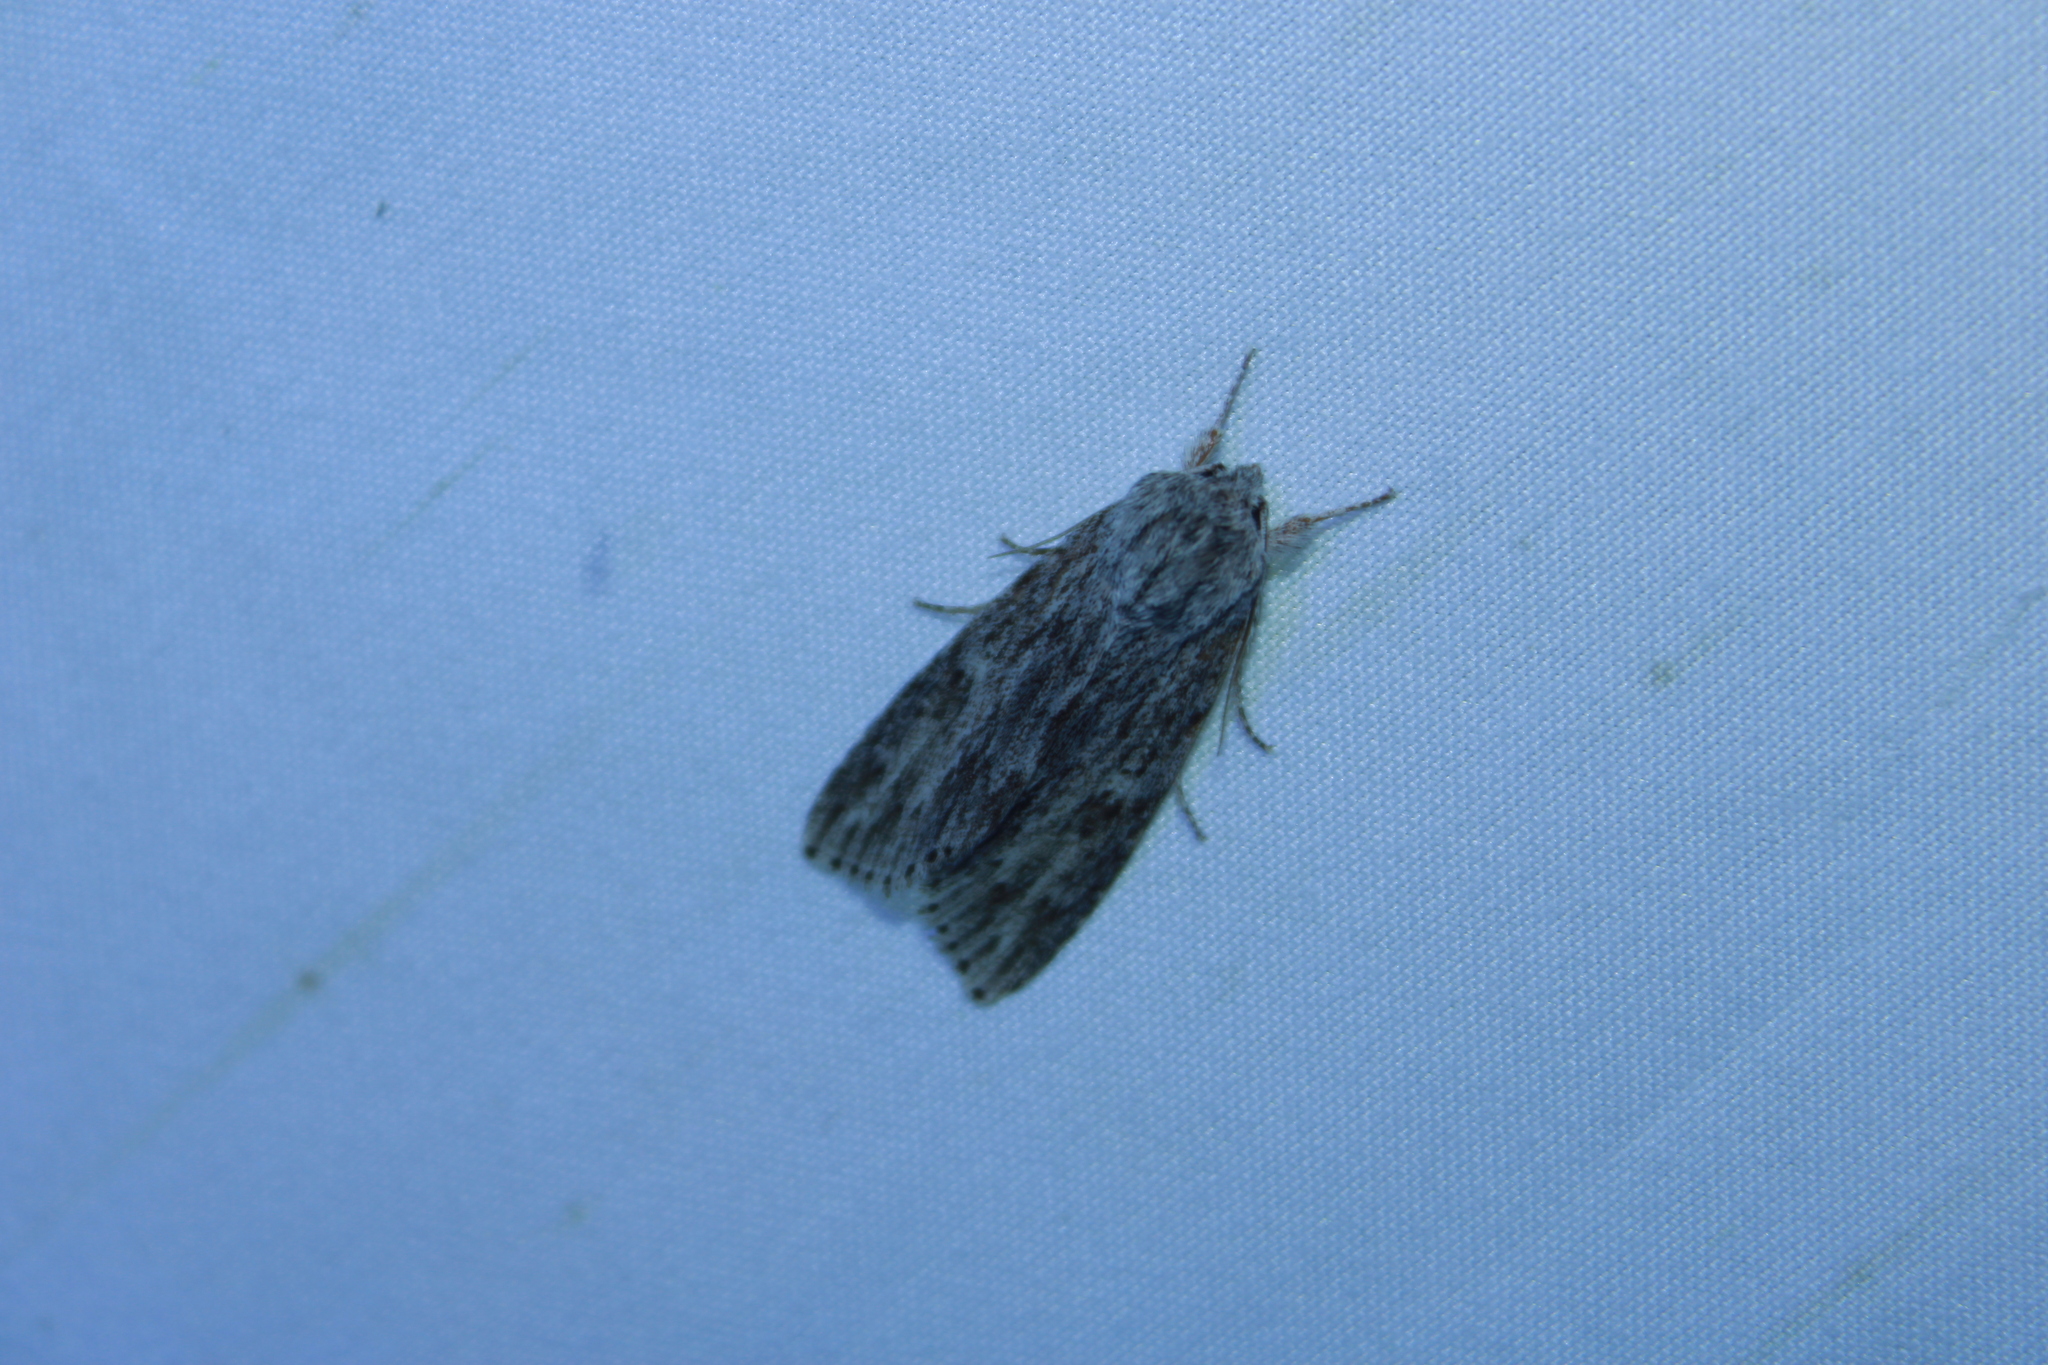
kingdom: Animalia
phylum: Arthropoda
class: Insecta
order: Lepidoptera
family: Noctuidae
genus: Acronicta
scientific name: Acronicta oblinita
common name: Smeared dagger
